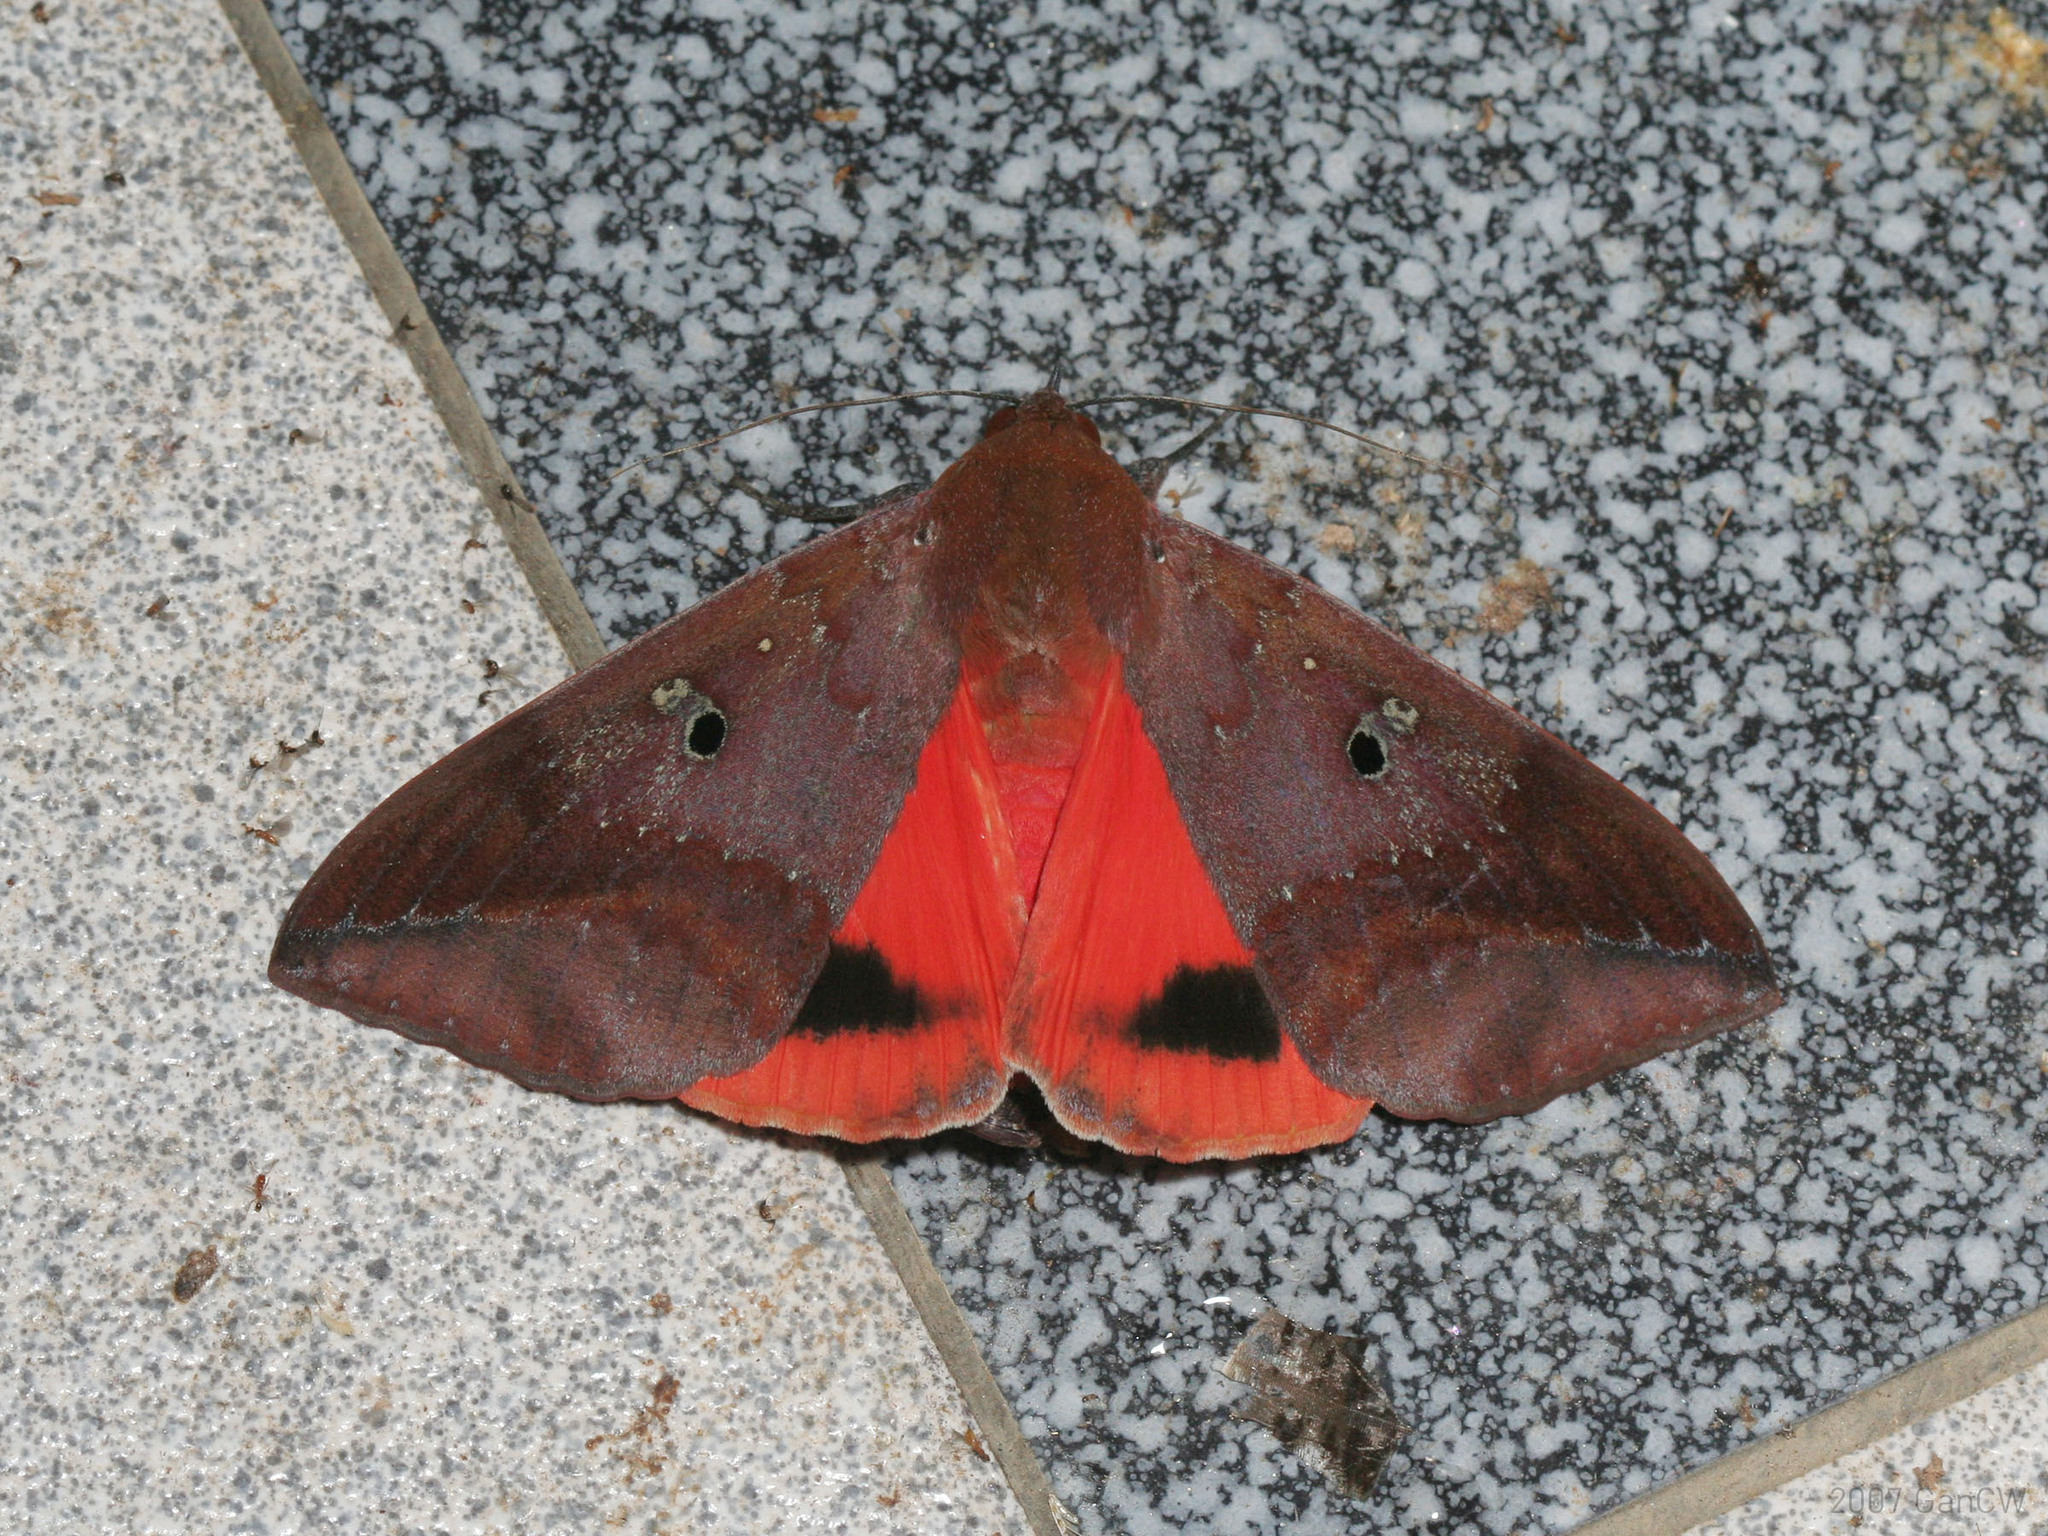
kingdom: Animalia
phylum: Arthropoda
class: Insecta
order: Lepidoptera
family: Erebidae
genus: Thyas
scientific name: Thyas honesta
